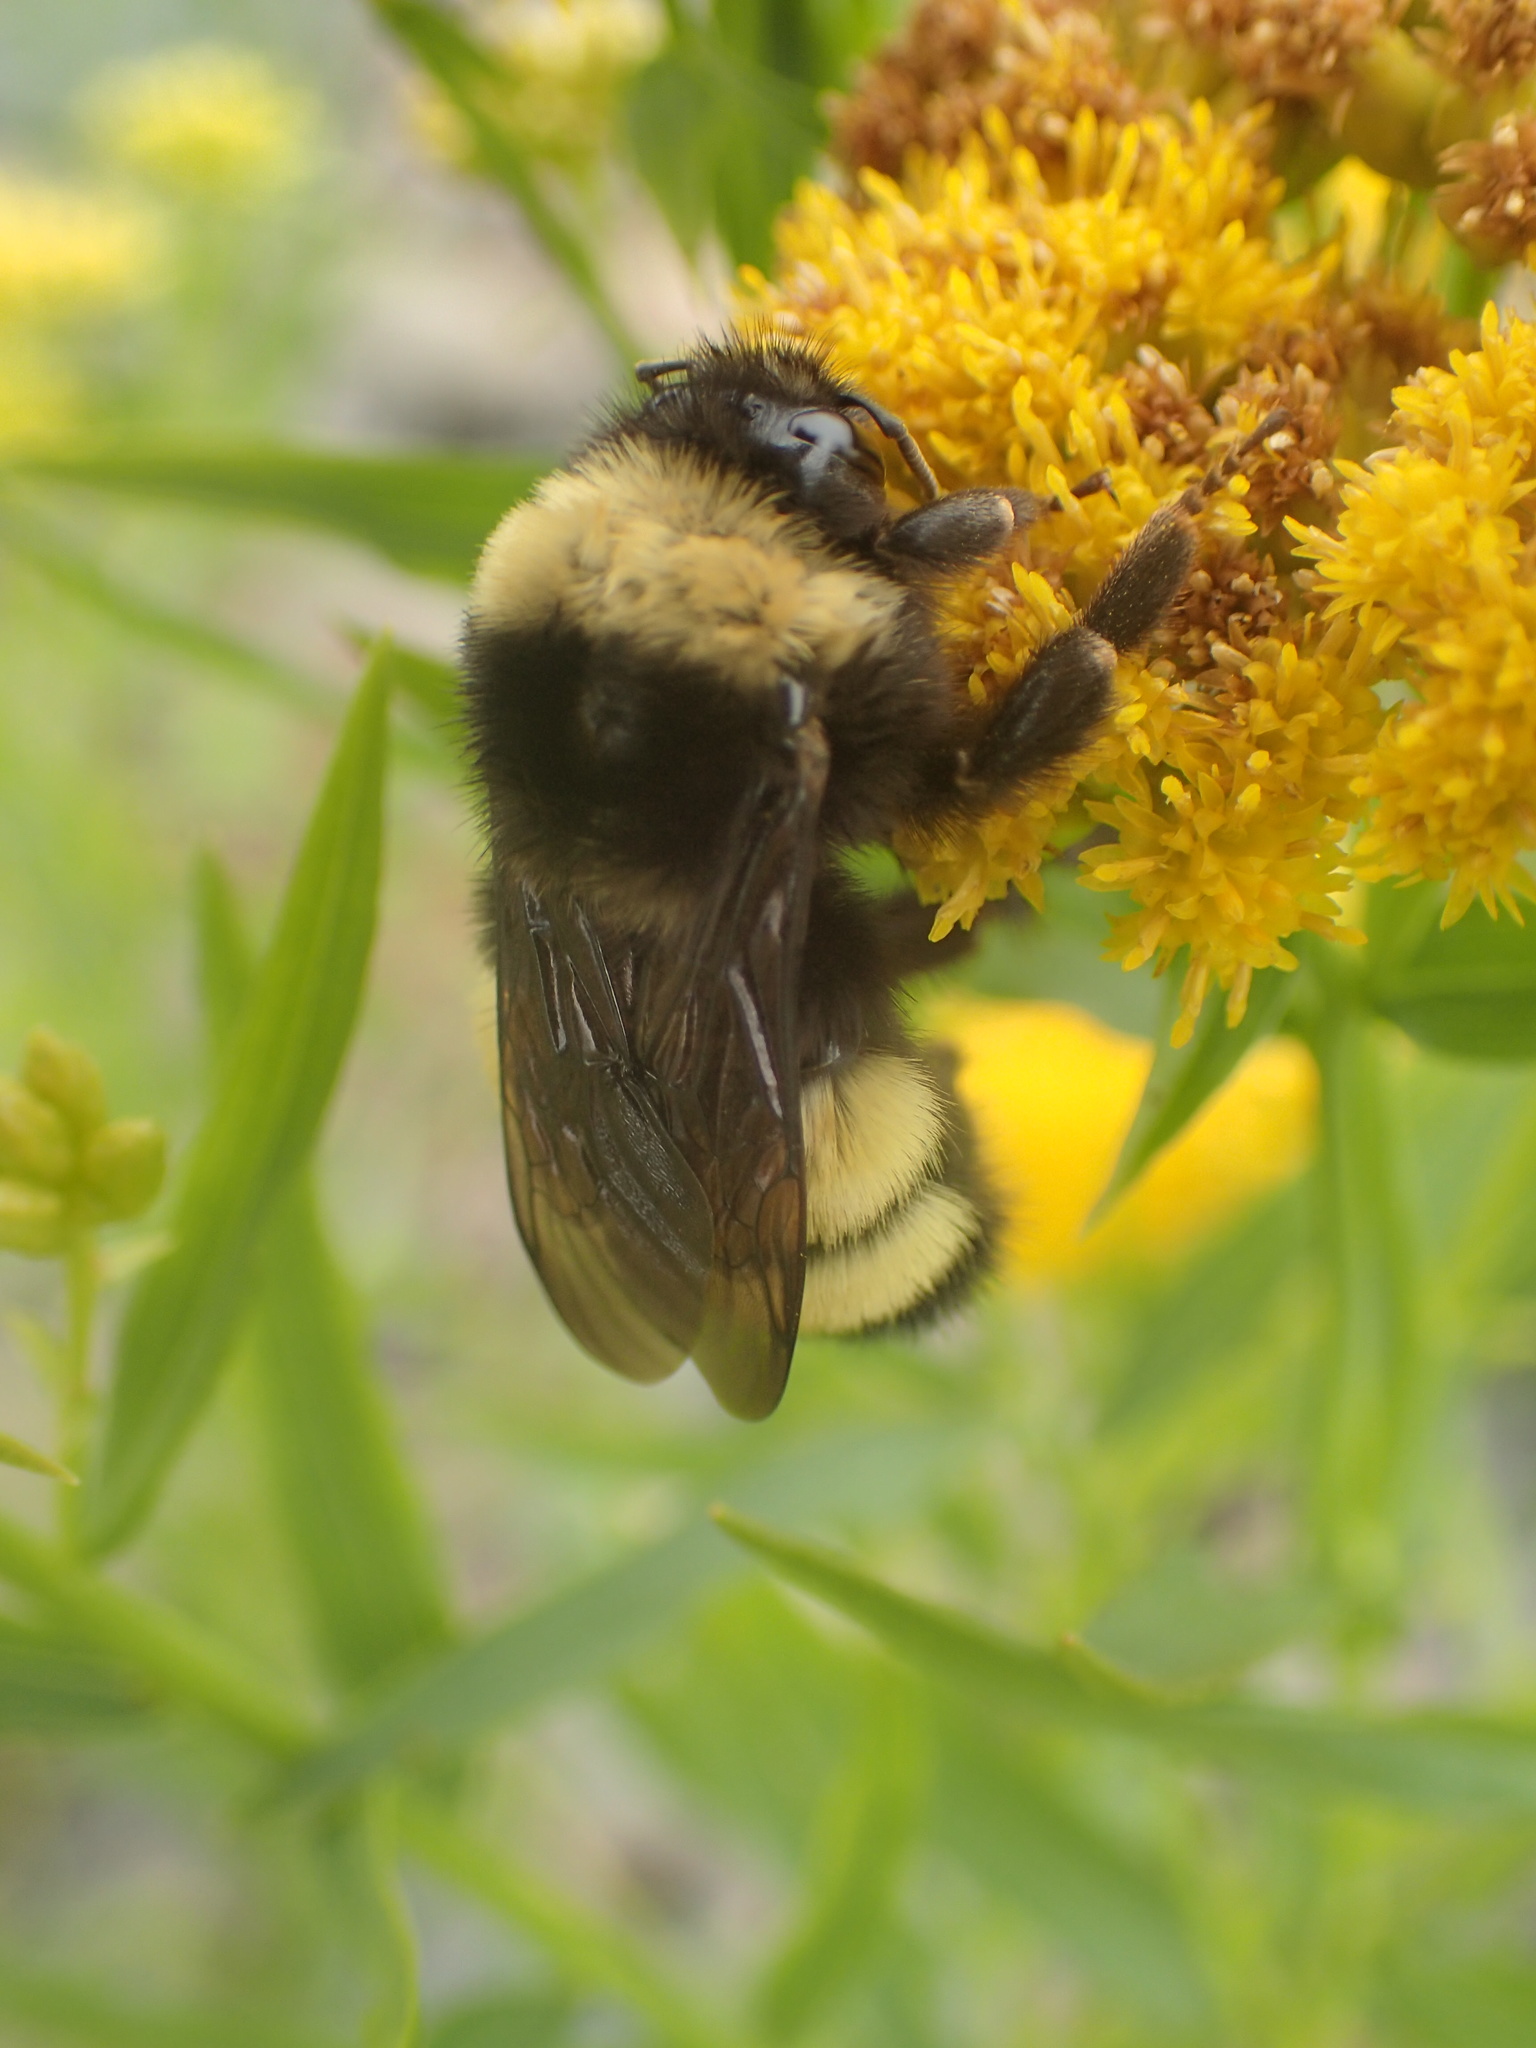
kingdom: Animalia
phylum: Arthropoda
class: Insecta
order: Hymenoptera
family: Apidae
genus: Bombus
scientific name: Bombus terricola
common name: Yellow-banded bumble bee
